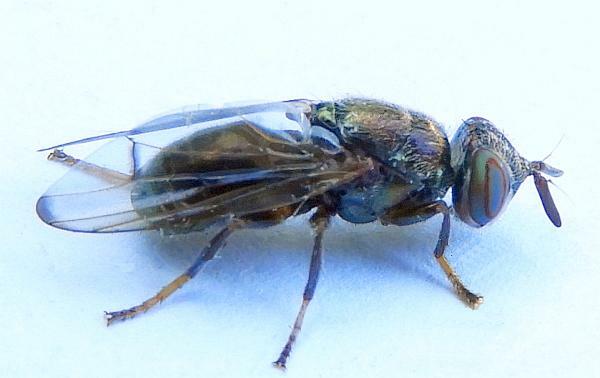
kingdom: Animalia
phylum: Arthropoda
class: Insecta
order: Diptera
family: Platystomatidae
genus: Senopterina
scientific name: Senopterina foxleei
